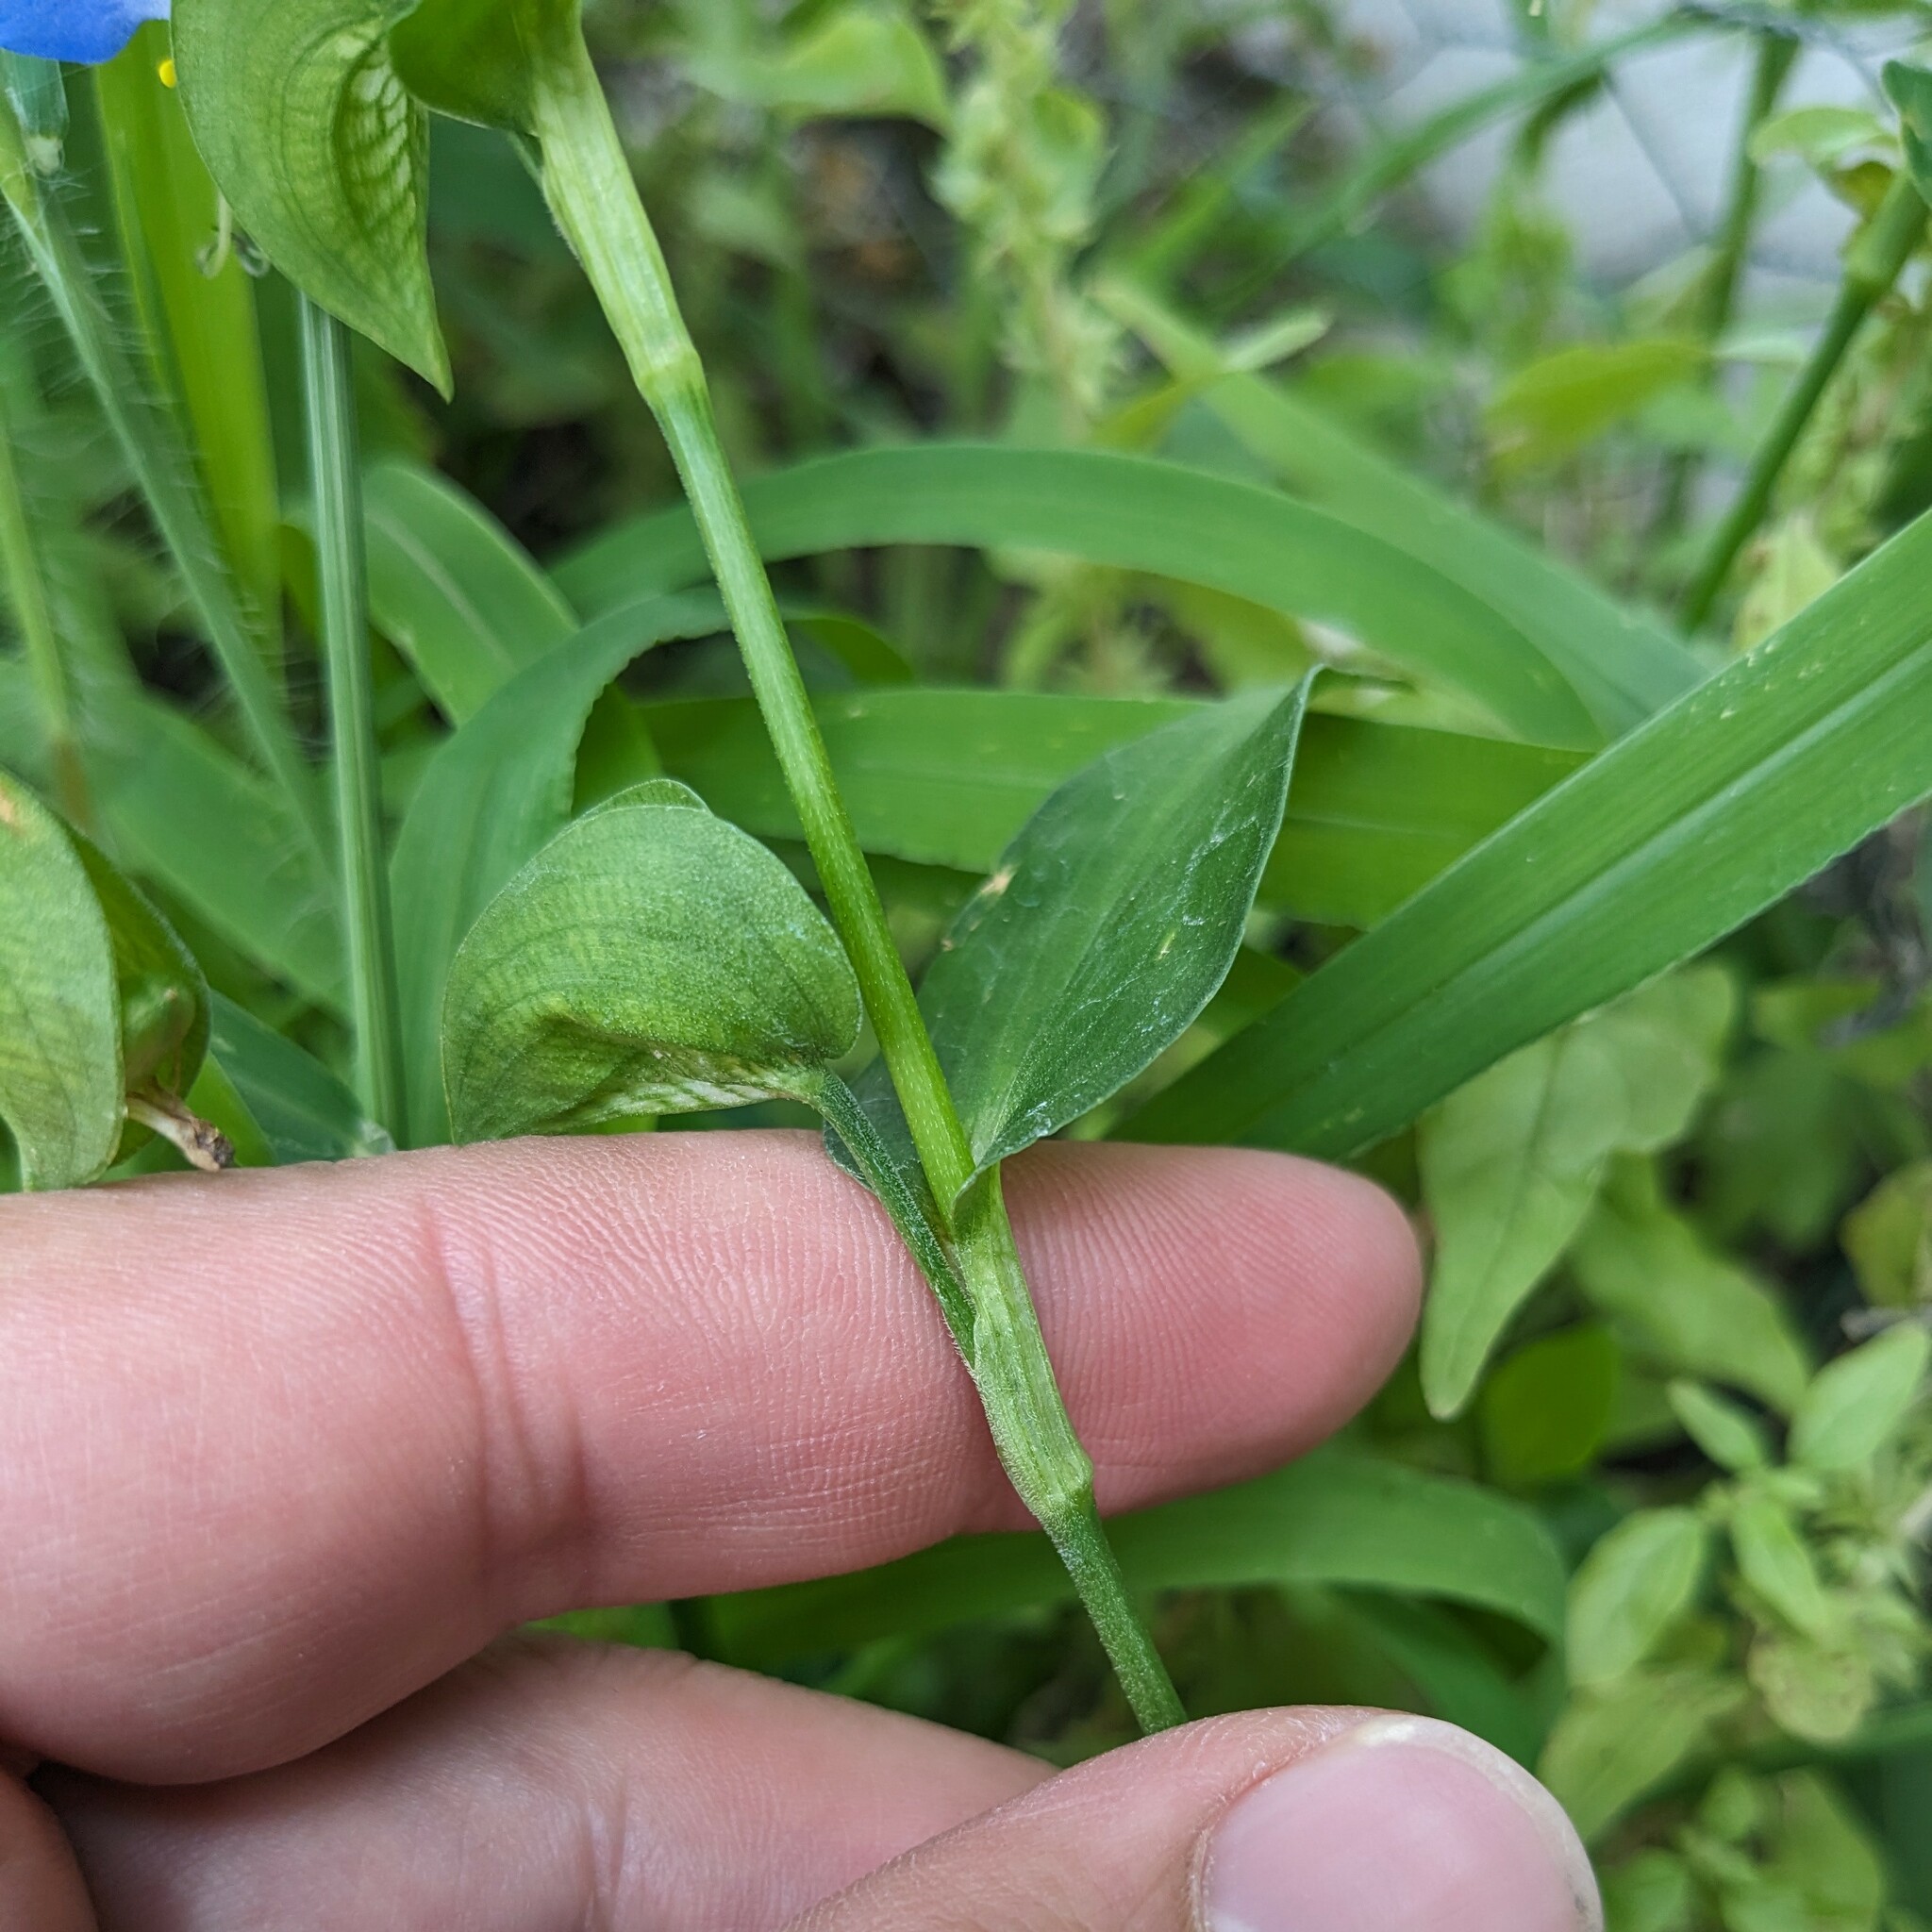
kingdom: Plantae
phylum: Tracheophyta
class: Liliopsida
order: Commelinales
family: Commelinaceae
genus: Commelina
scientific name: Commelina communis
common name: Asiatic dayflower
